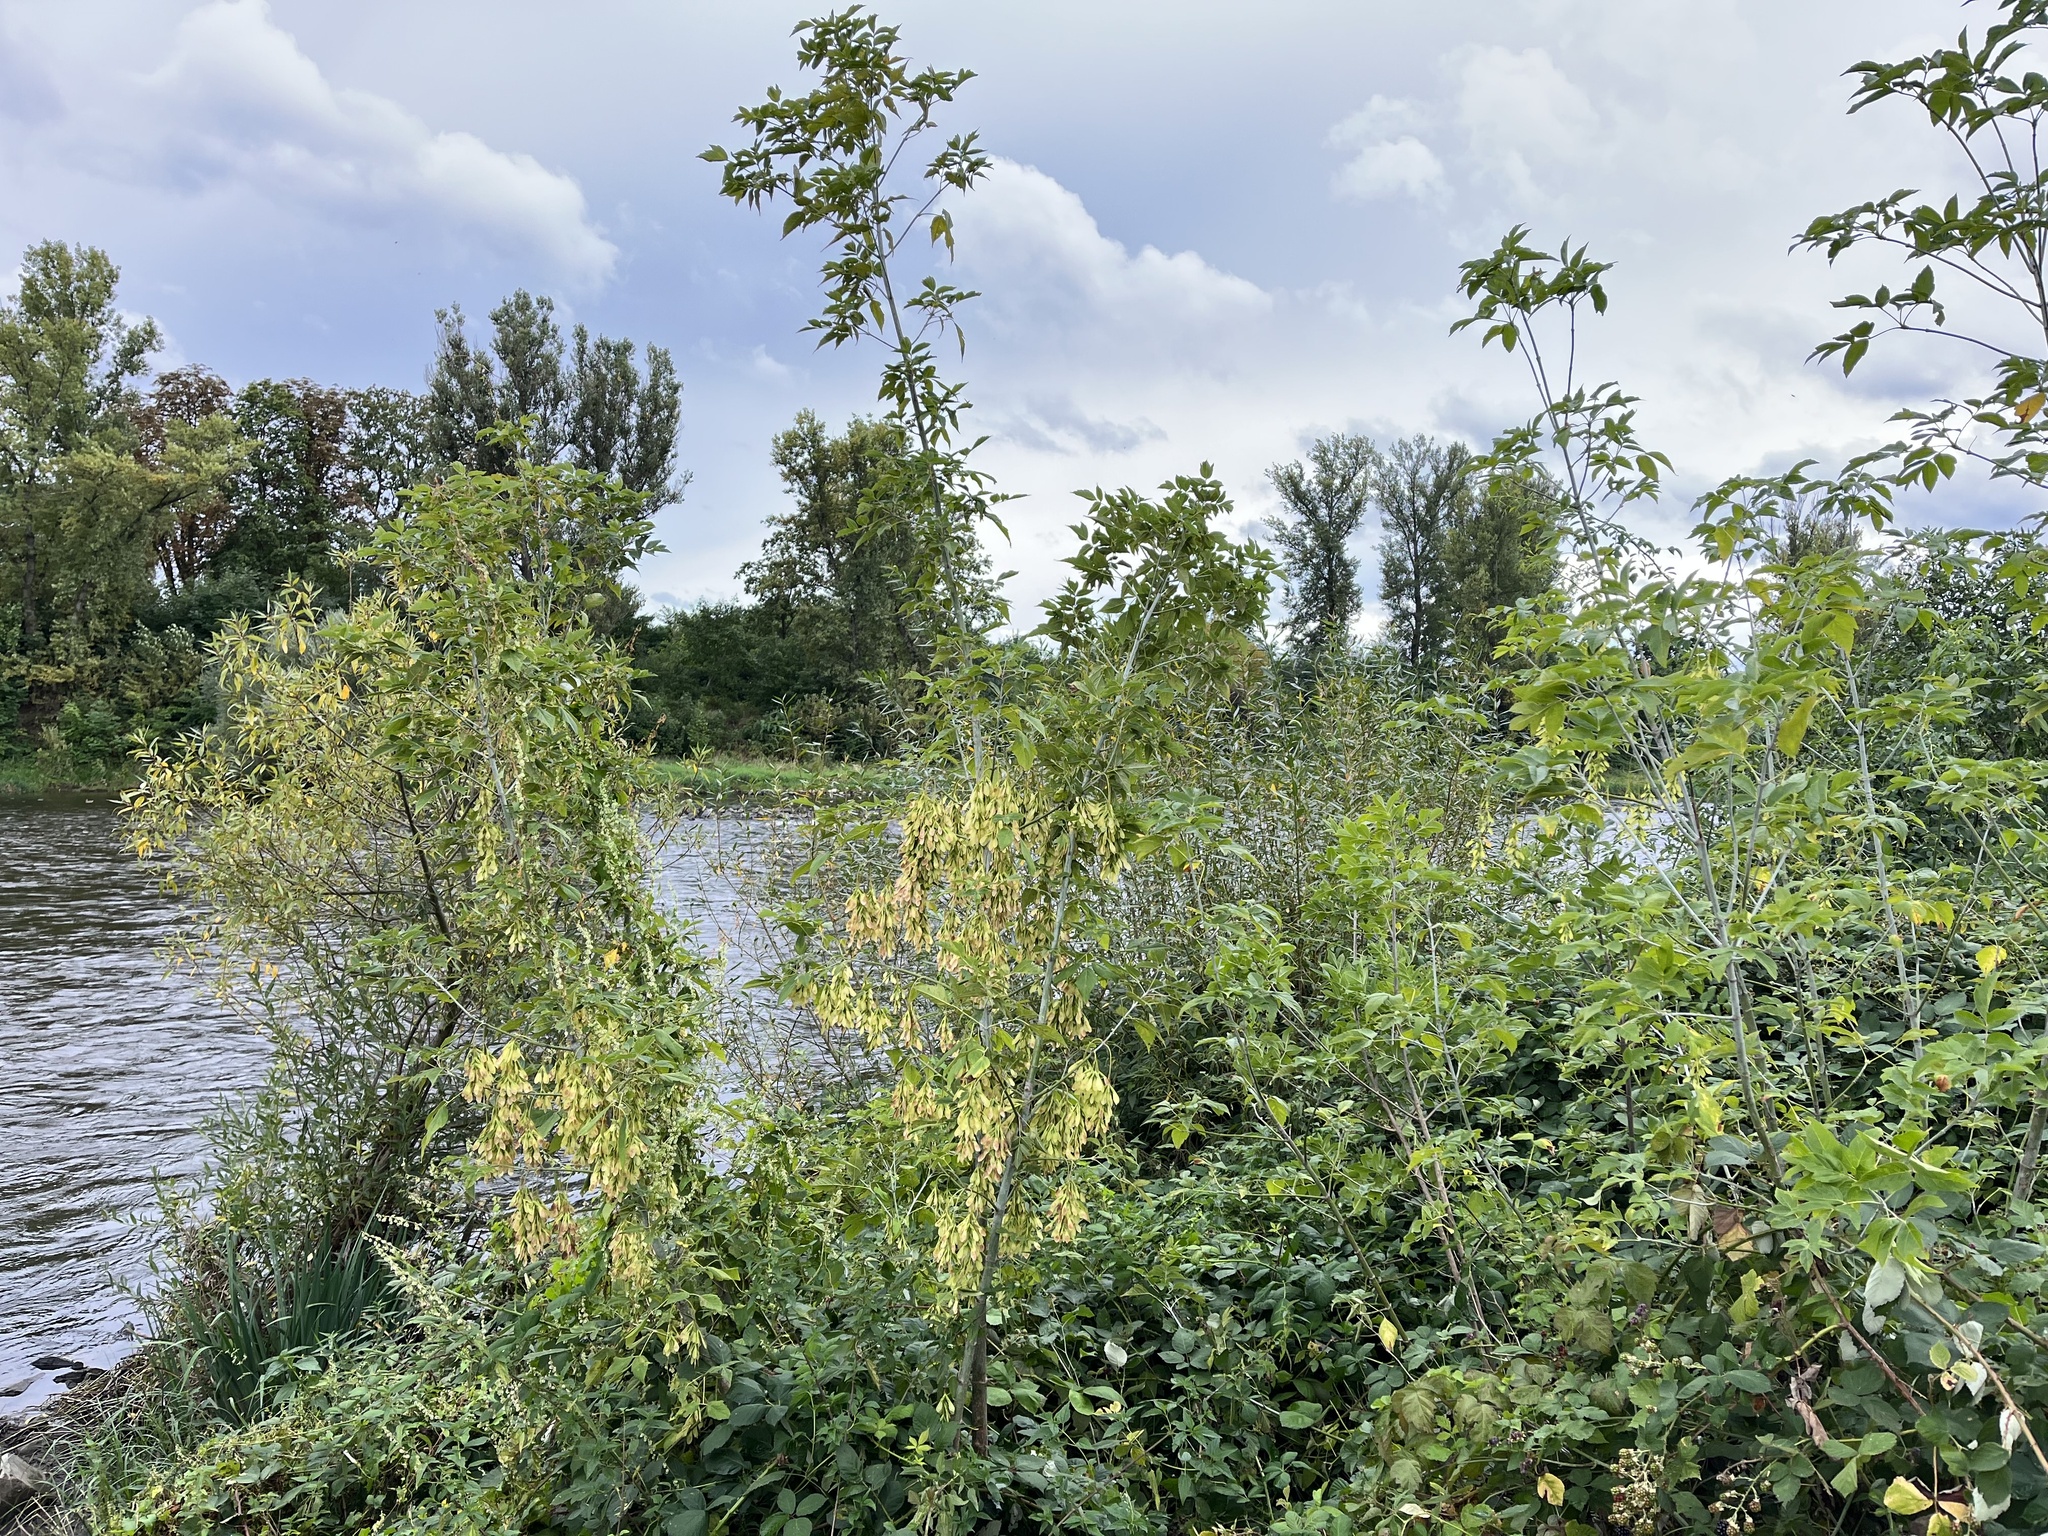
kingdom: Plantae
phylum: Tracheophyta
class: Magnoliopsida
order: Sapindales
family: Sapindaceae
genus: Acer
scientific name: Acer negundo
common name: Ashleaf maple
